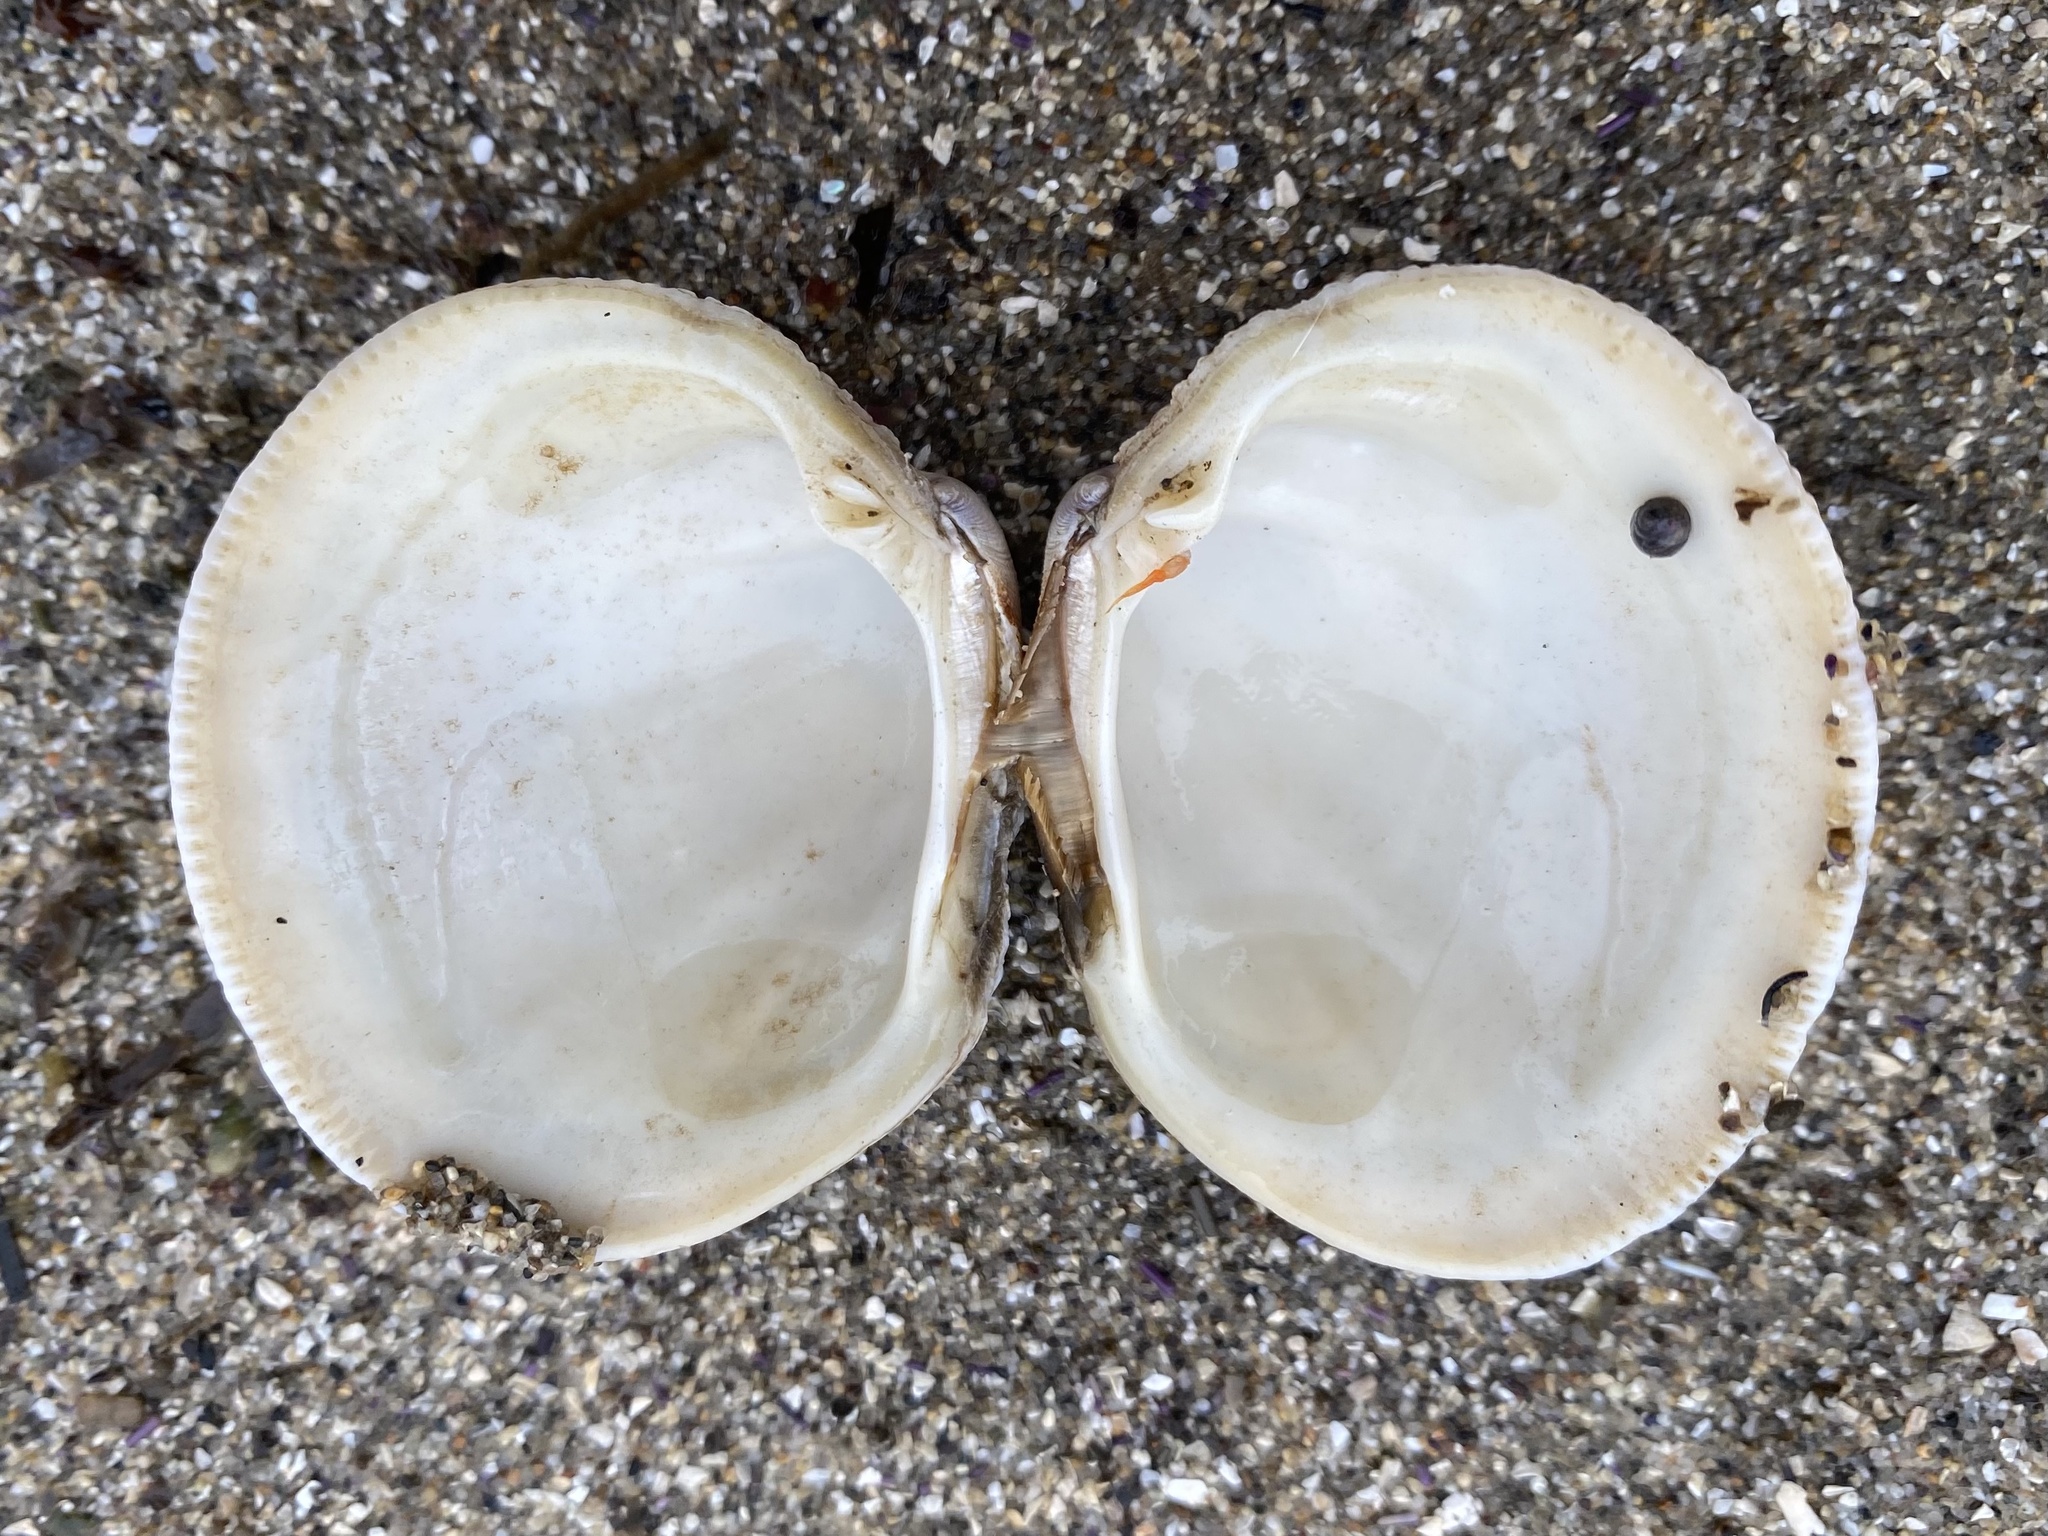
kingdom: Animalia
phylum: Mollusca
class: Bivalvia
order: Venerida
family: Veneridae
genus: Leukoma
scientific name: Leukoma staminea
